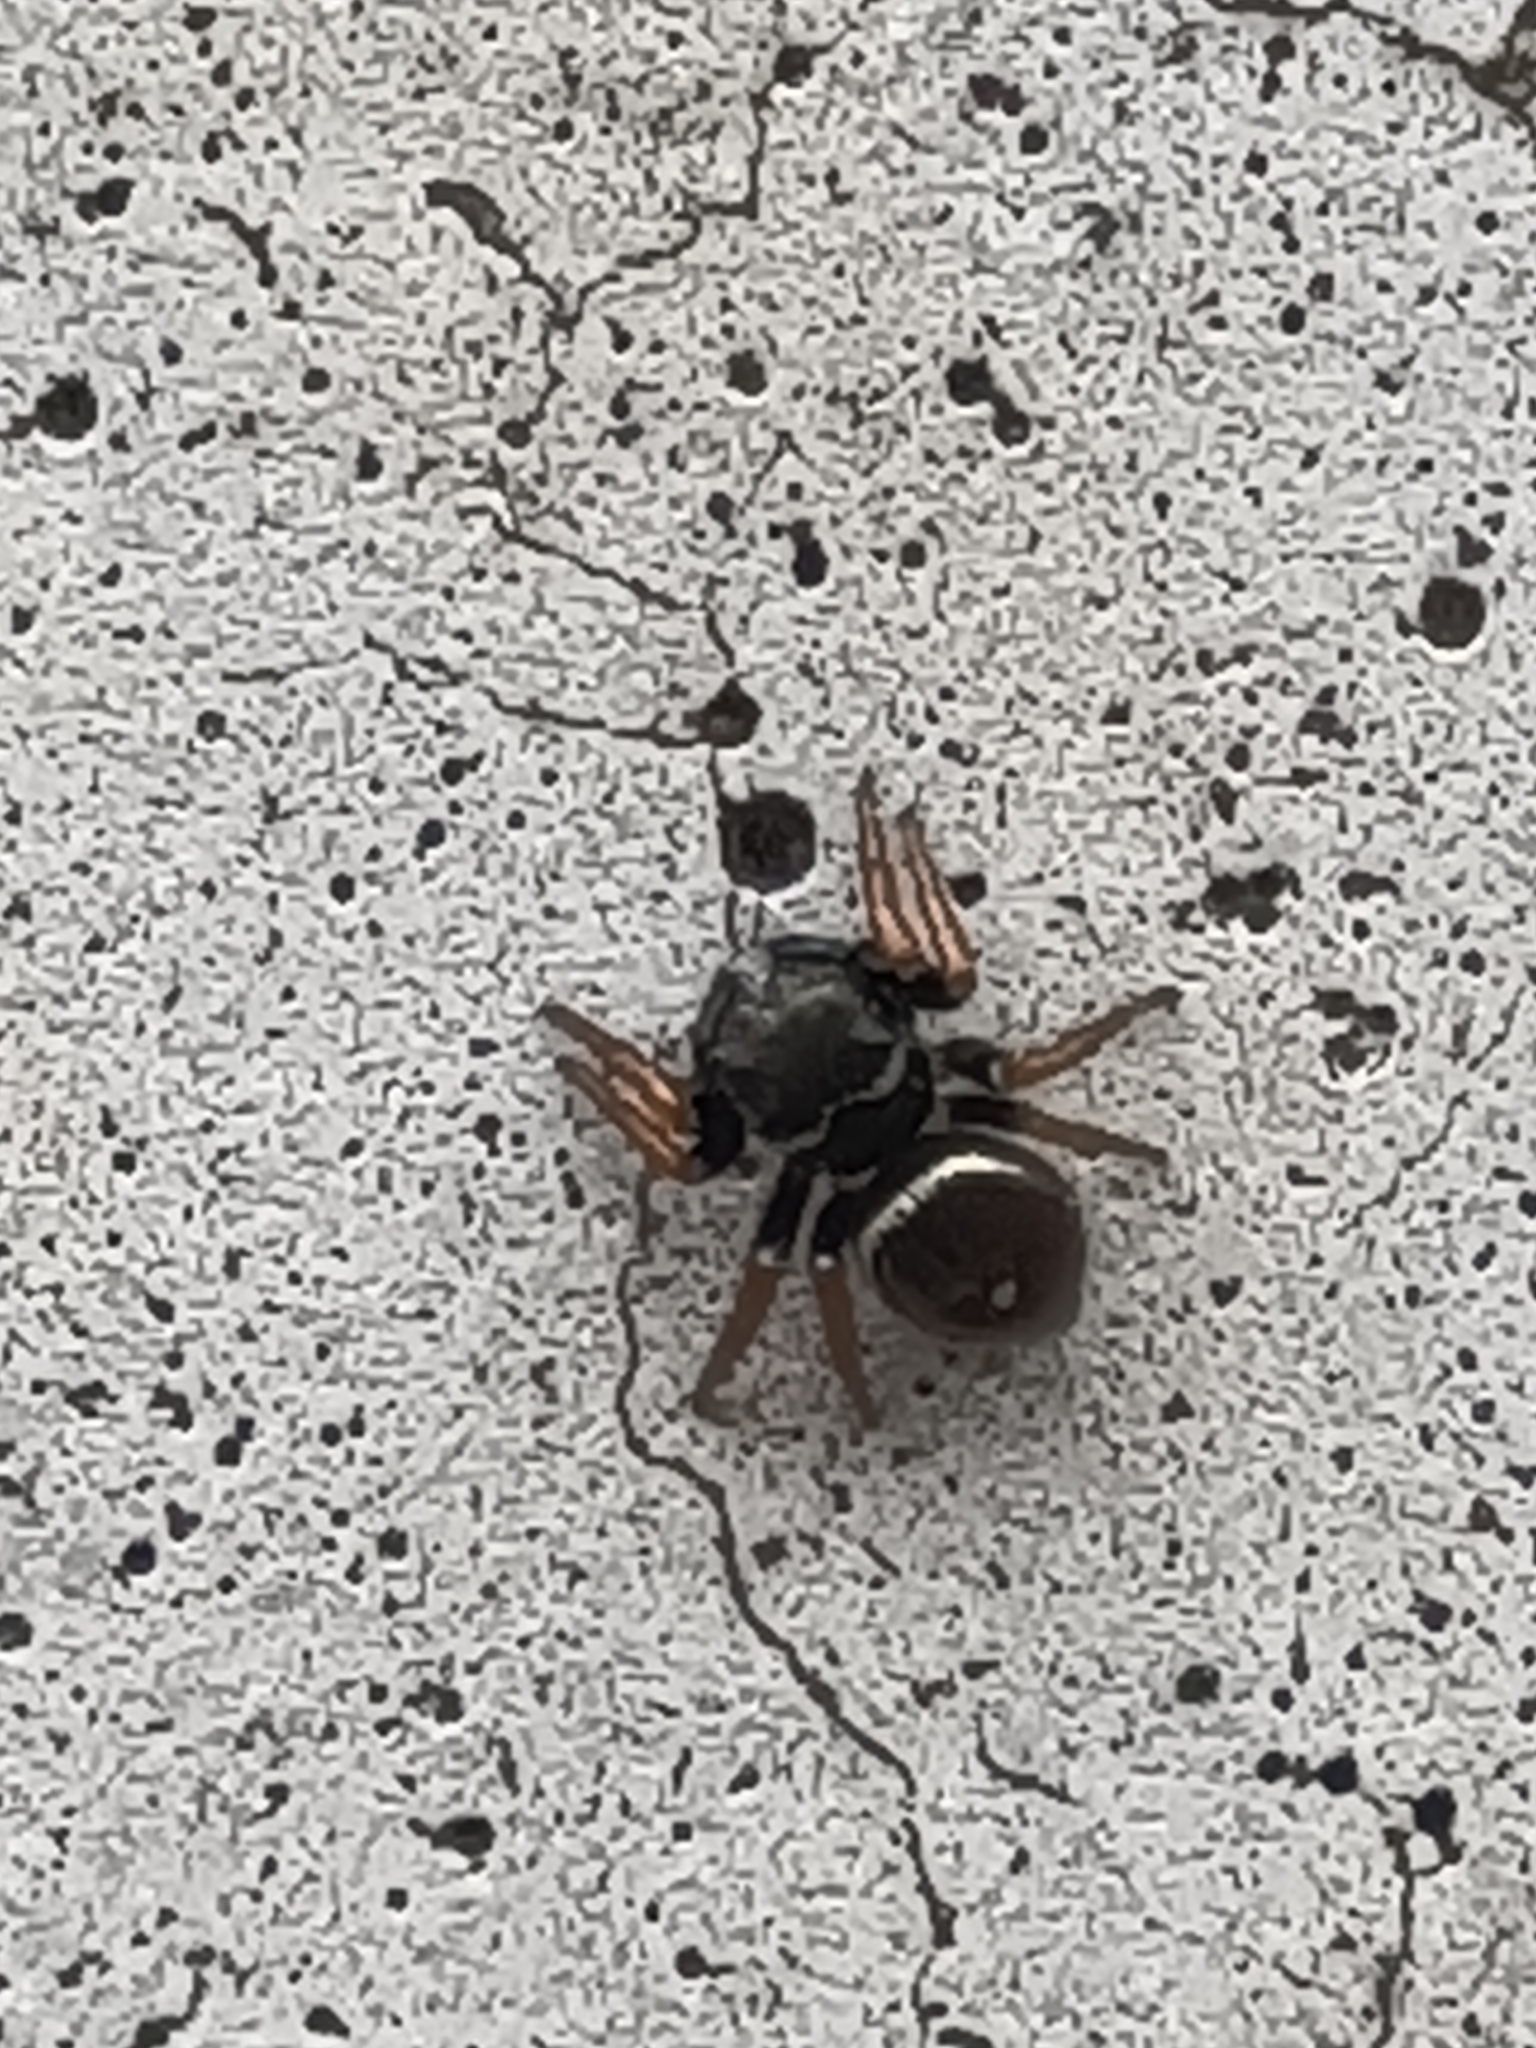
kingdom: Animalia
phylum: Arthropoda
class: Arachnida
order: Araneae
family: Salticidae
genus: Zenodorus
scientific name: Zenodorus orbiculatus
